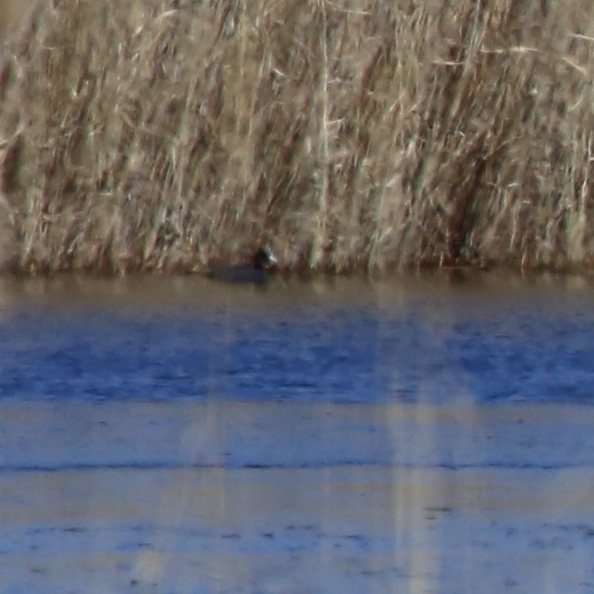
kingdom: Animalia
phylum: Chordata
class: Aves
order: Gruiformes
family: Rallidae
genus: Fulica
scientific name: Fulica atra
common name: Eurasian coot
